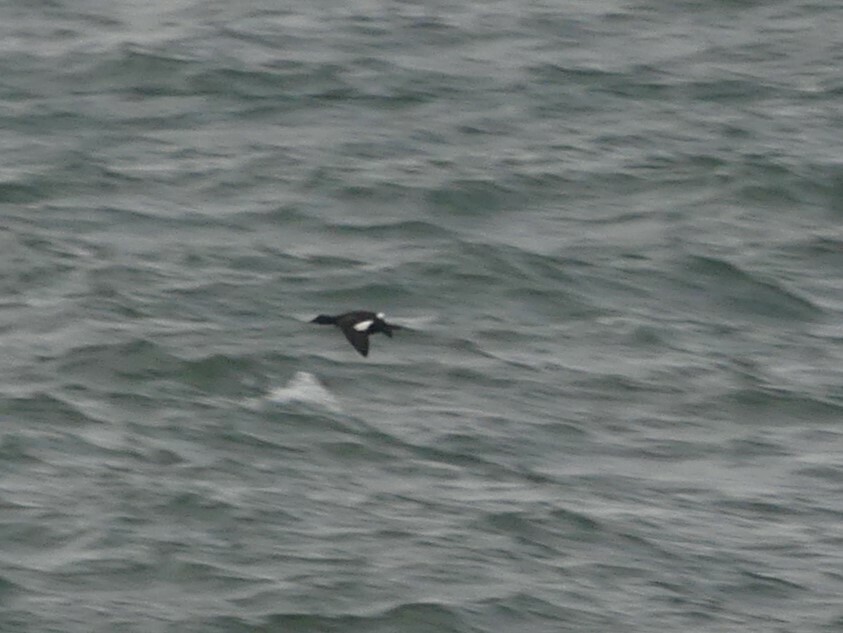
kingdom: Animalia
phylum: Chordata
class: Aves
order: Anseriformes
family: Anatidae
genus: Melanitta
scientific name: Melanitta deglandi
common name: White-winged scoter
